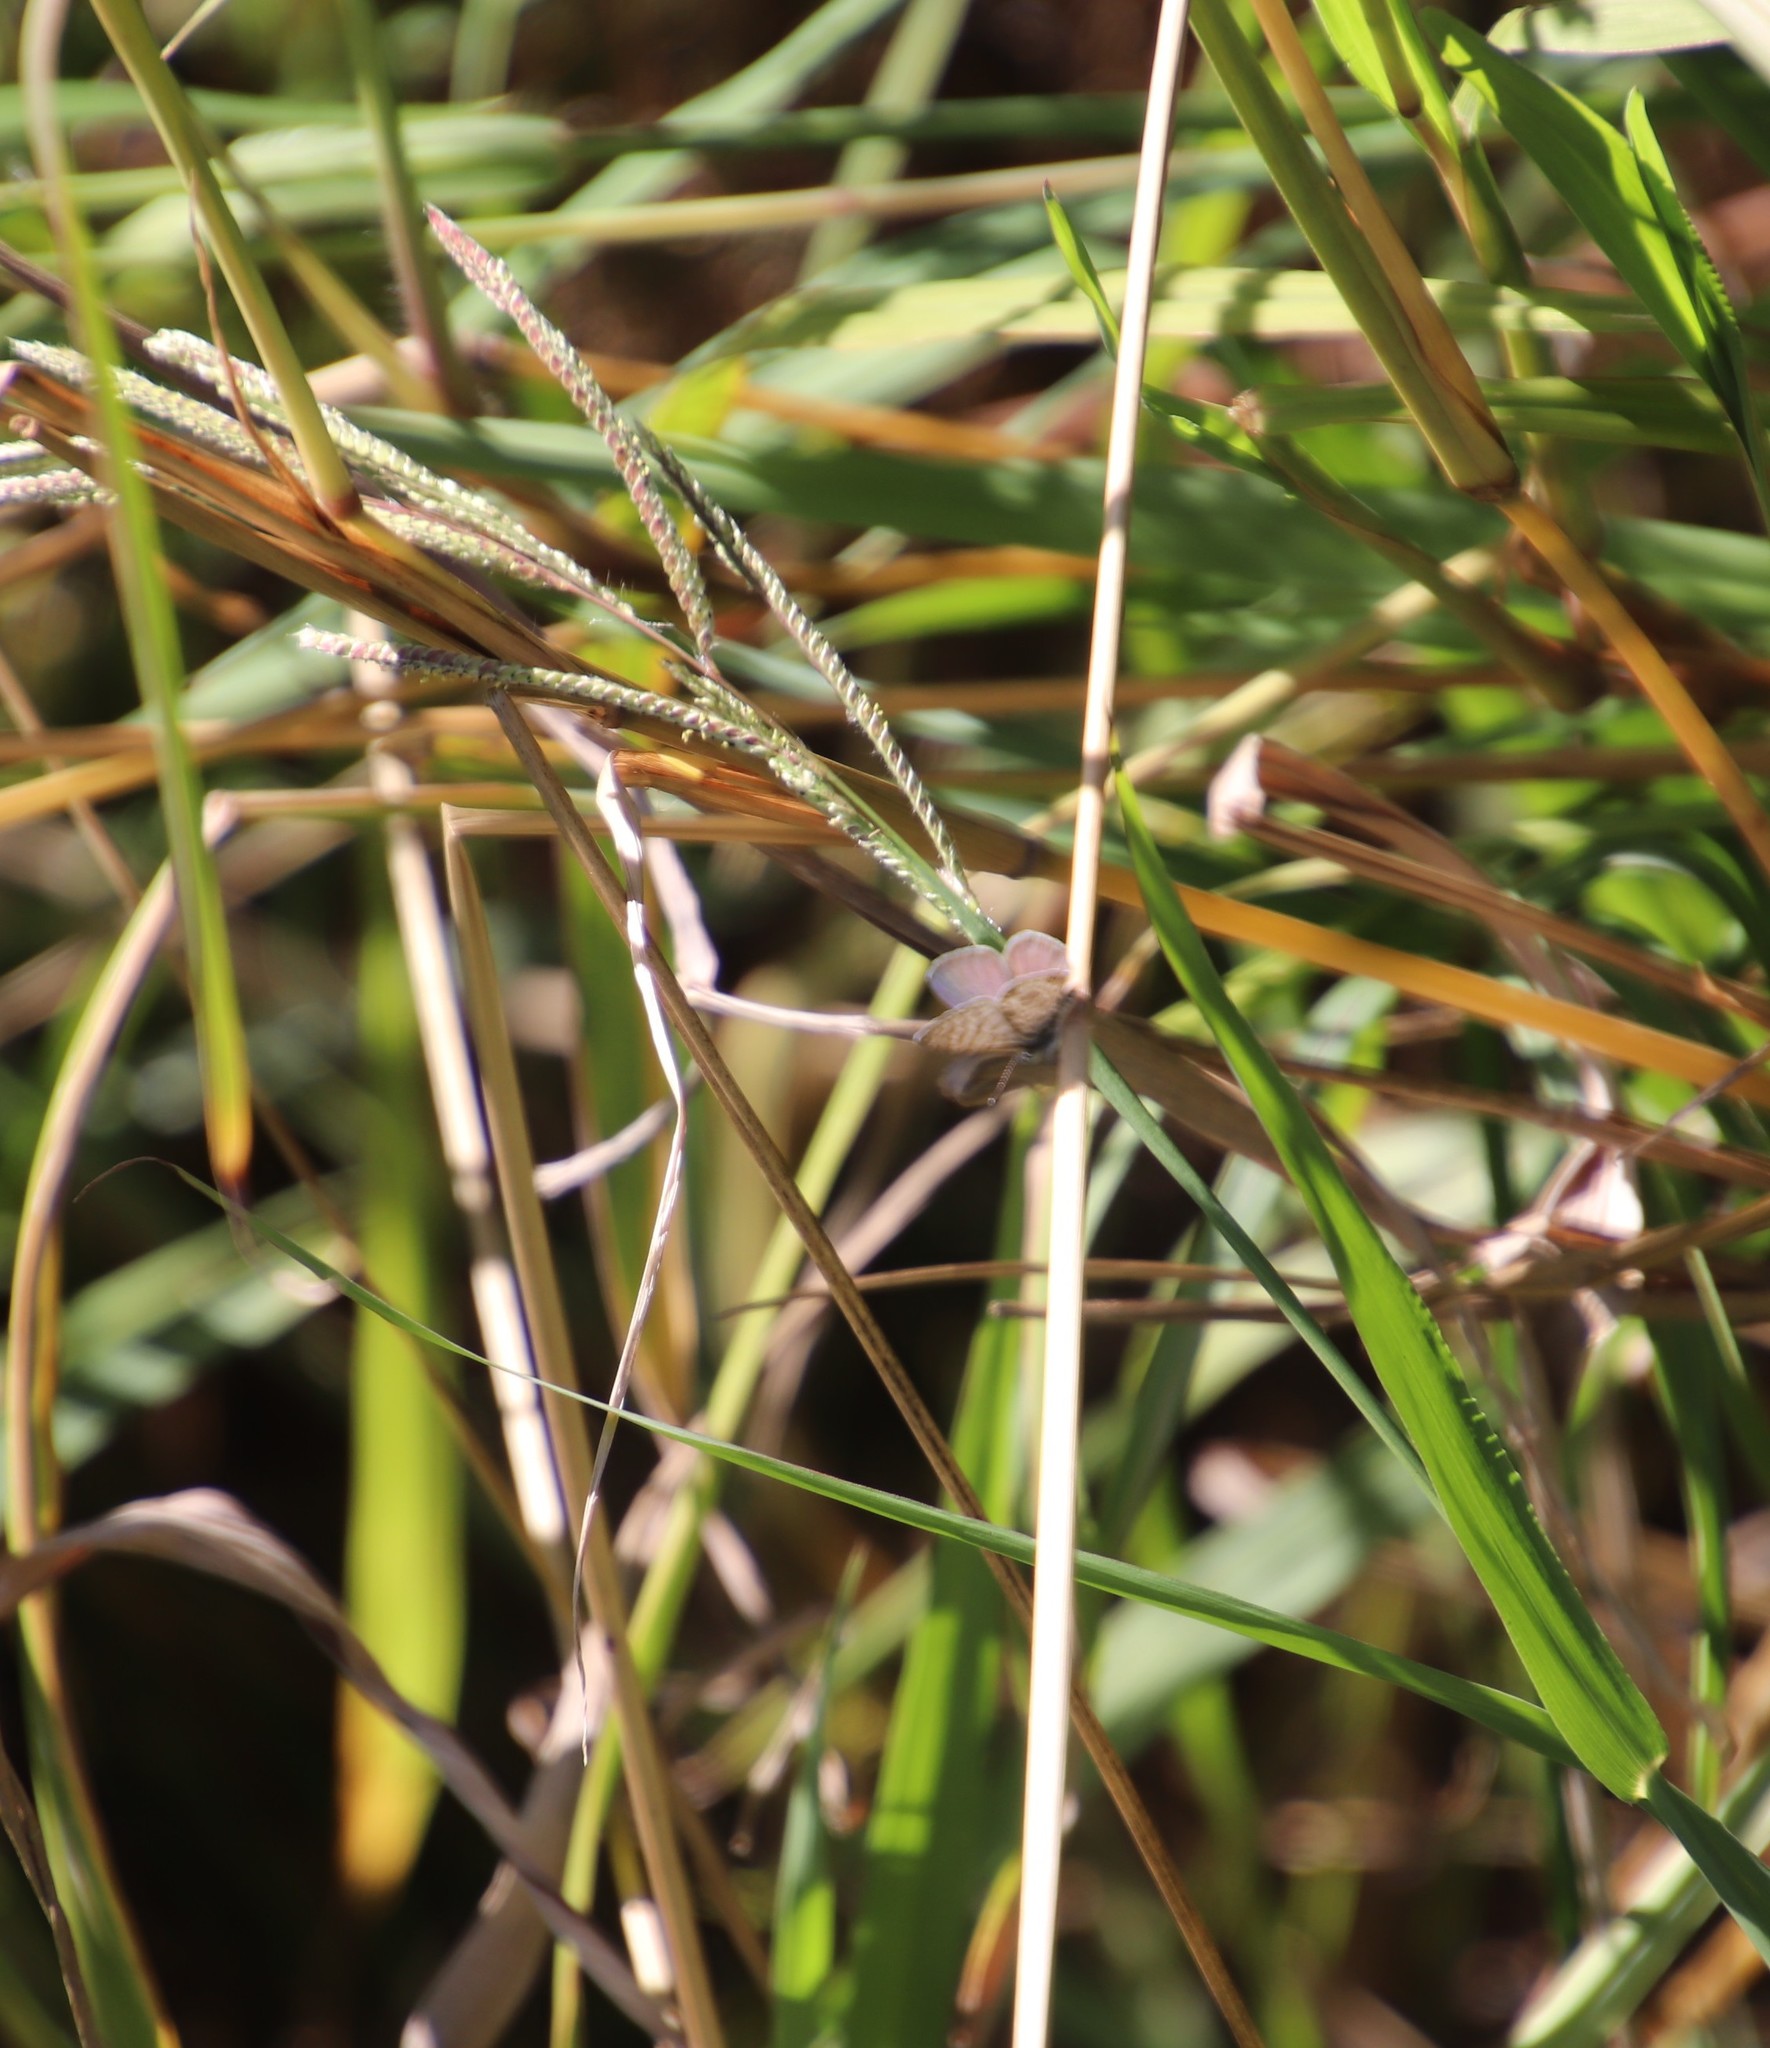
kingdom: Plantae
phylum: Tracheophyta
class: Liliopsida
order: Poales
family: Poaceae
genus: Paspalum
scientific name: Paspalum dilatatum
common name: Dallisgrass
